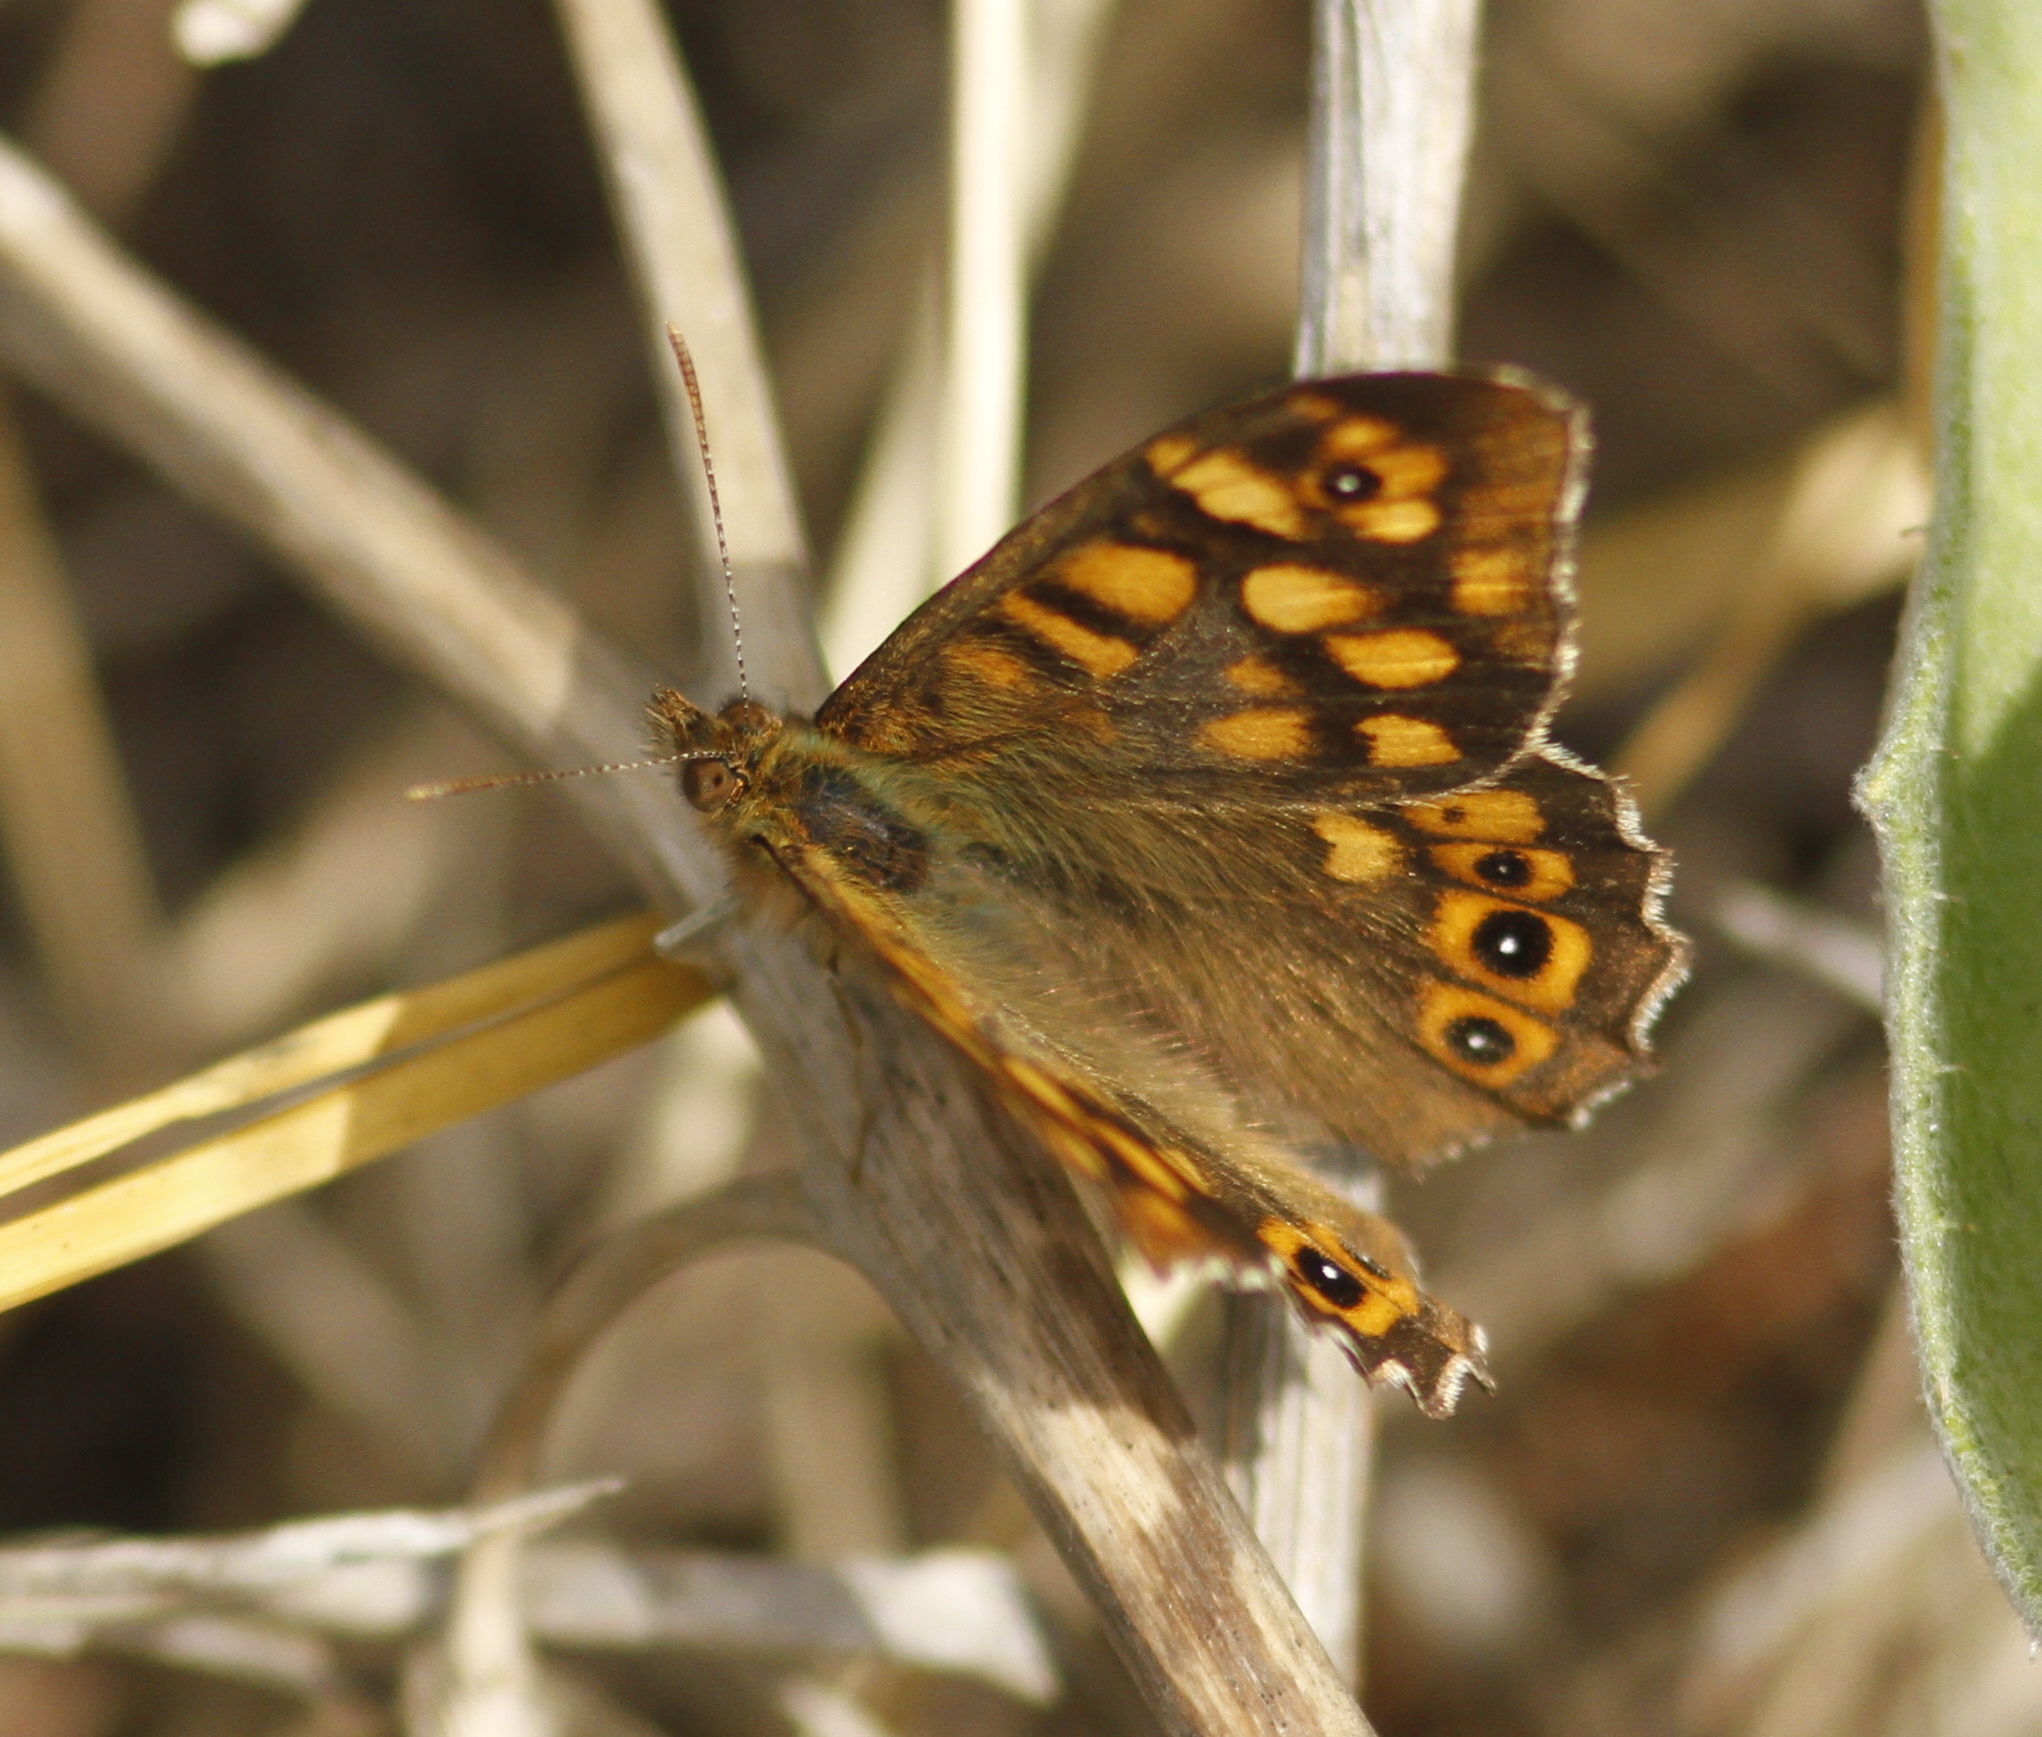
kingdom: Animalia
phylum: Arthropoda
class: Insecta
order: Lepidoptera
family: Nymphalidae
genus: Pararge
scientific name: Pararge aegeria
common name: Speckled wood
